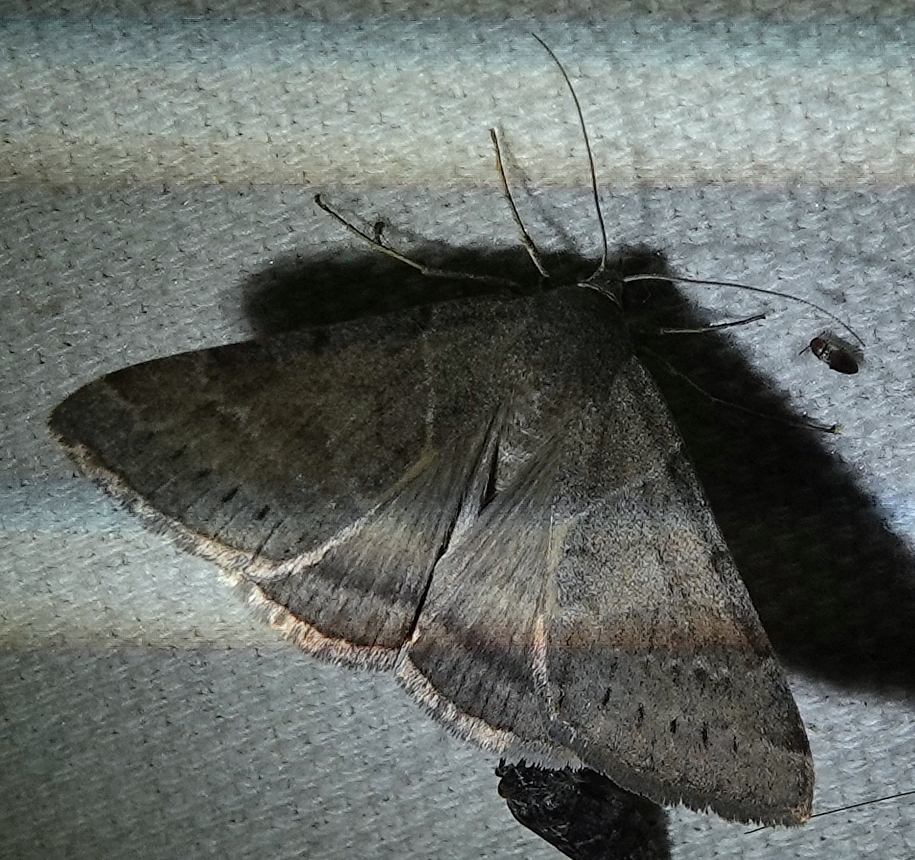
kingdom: Animalia
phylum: Arthropoda
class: Insecta
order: Lepidoptera
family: Erebidae
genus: Caenurgina
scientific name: Caenurgina erechtea
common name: Forage looper moth
